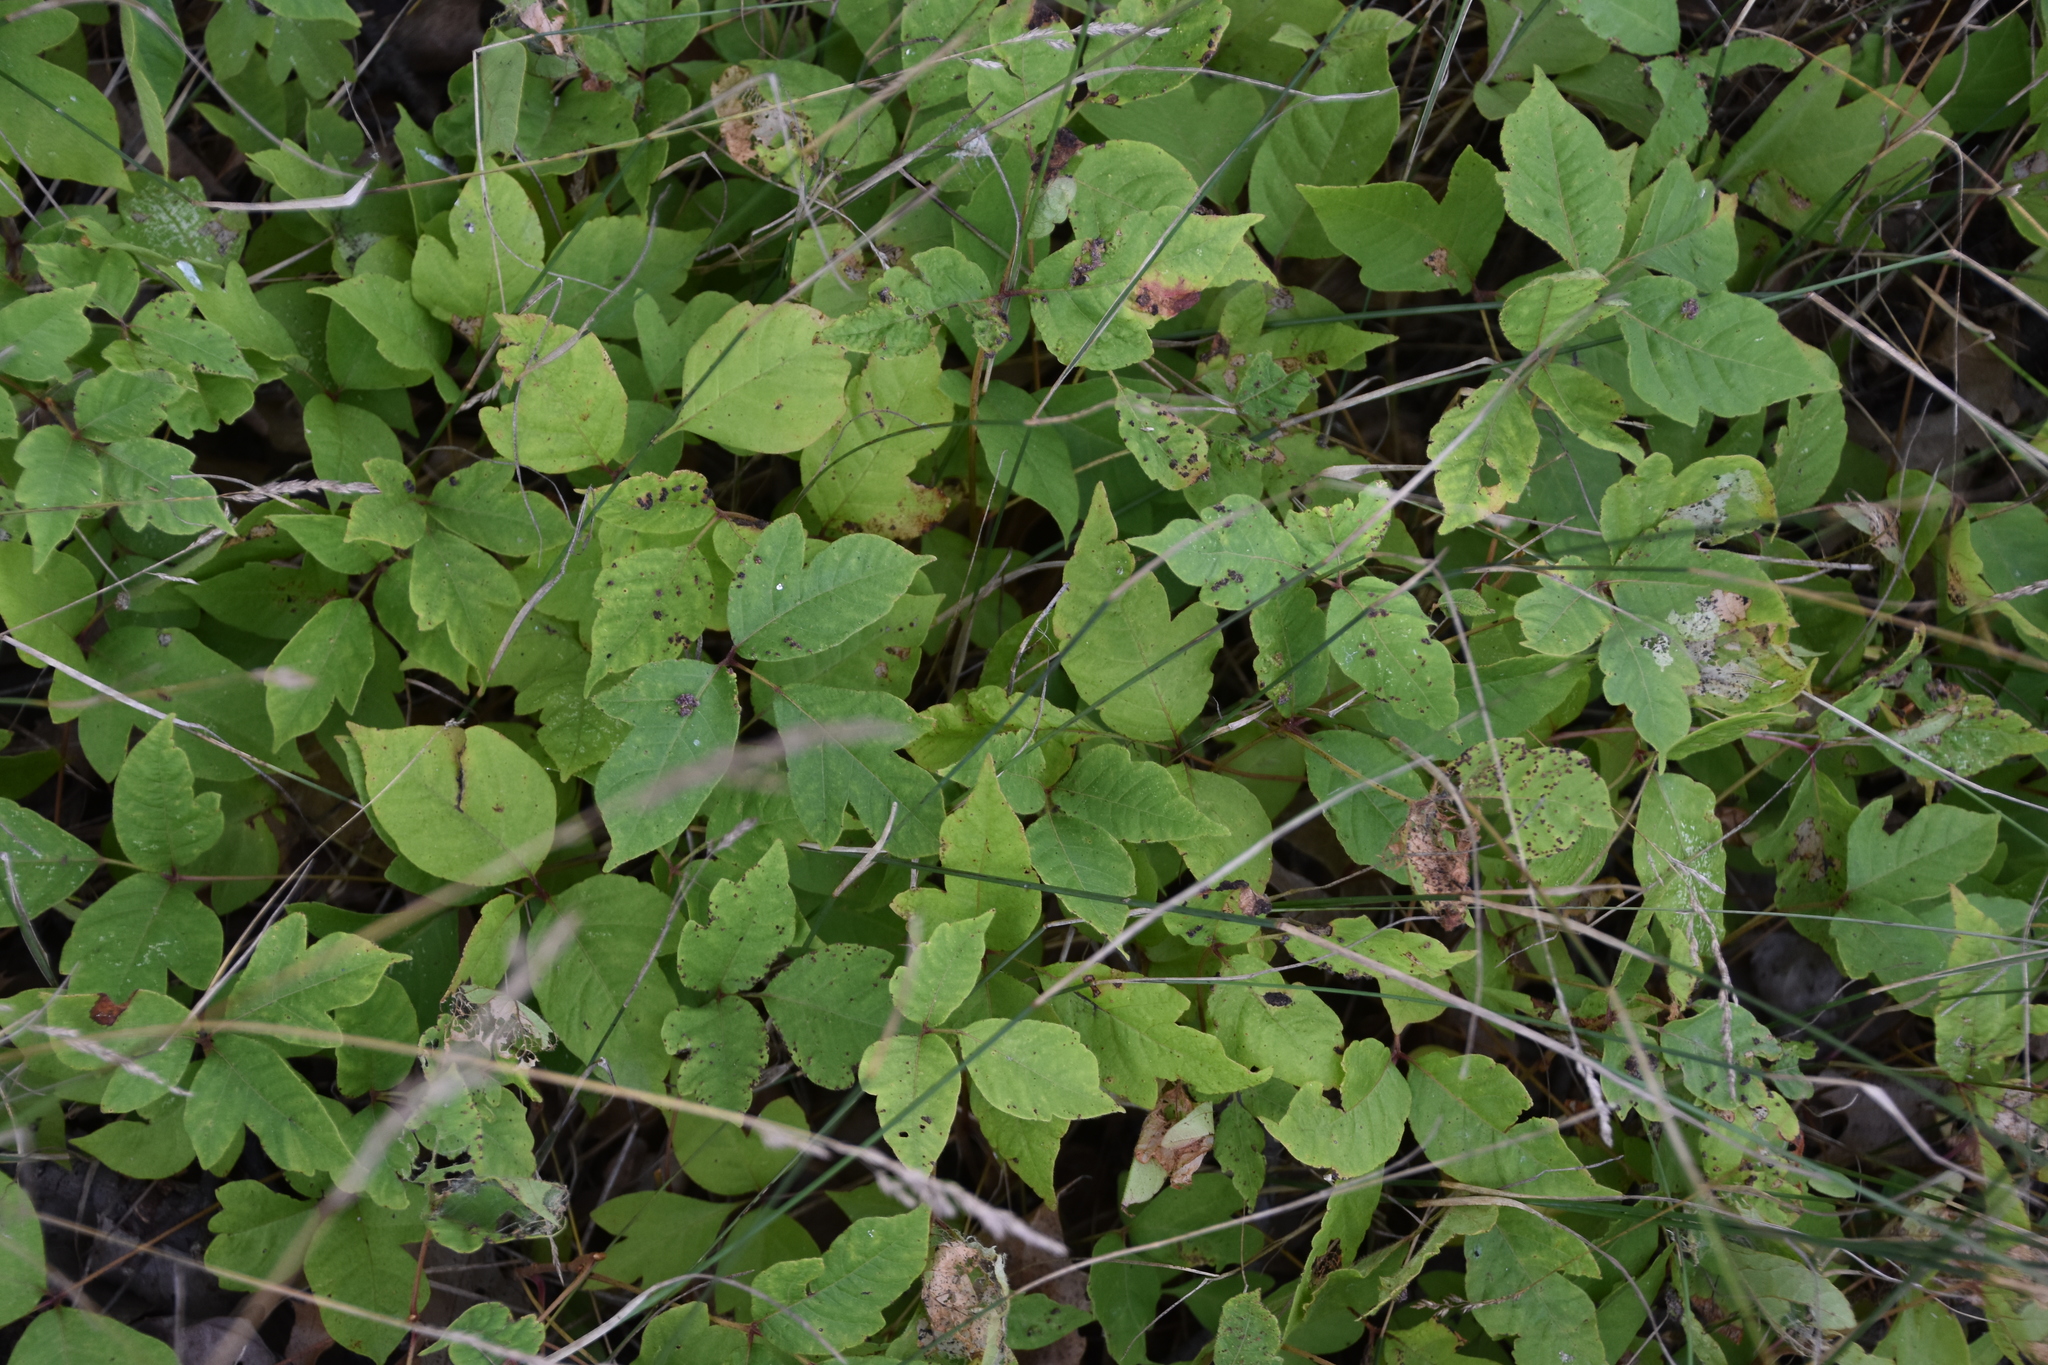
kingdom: Plantae
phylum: Tracheophyta
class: Magnoliopsida
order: Sapindales
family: Anacardiaceae
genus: Toxicodendron
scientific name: Toxicodendron radicans
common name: Poison ivy
